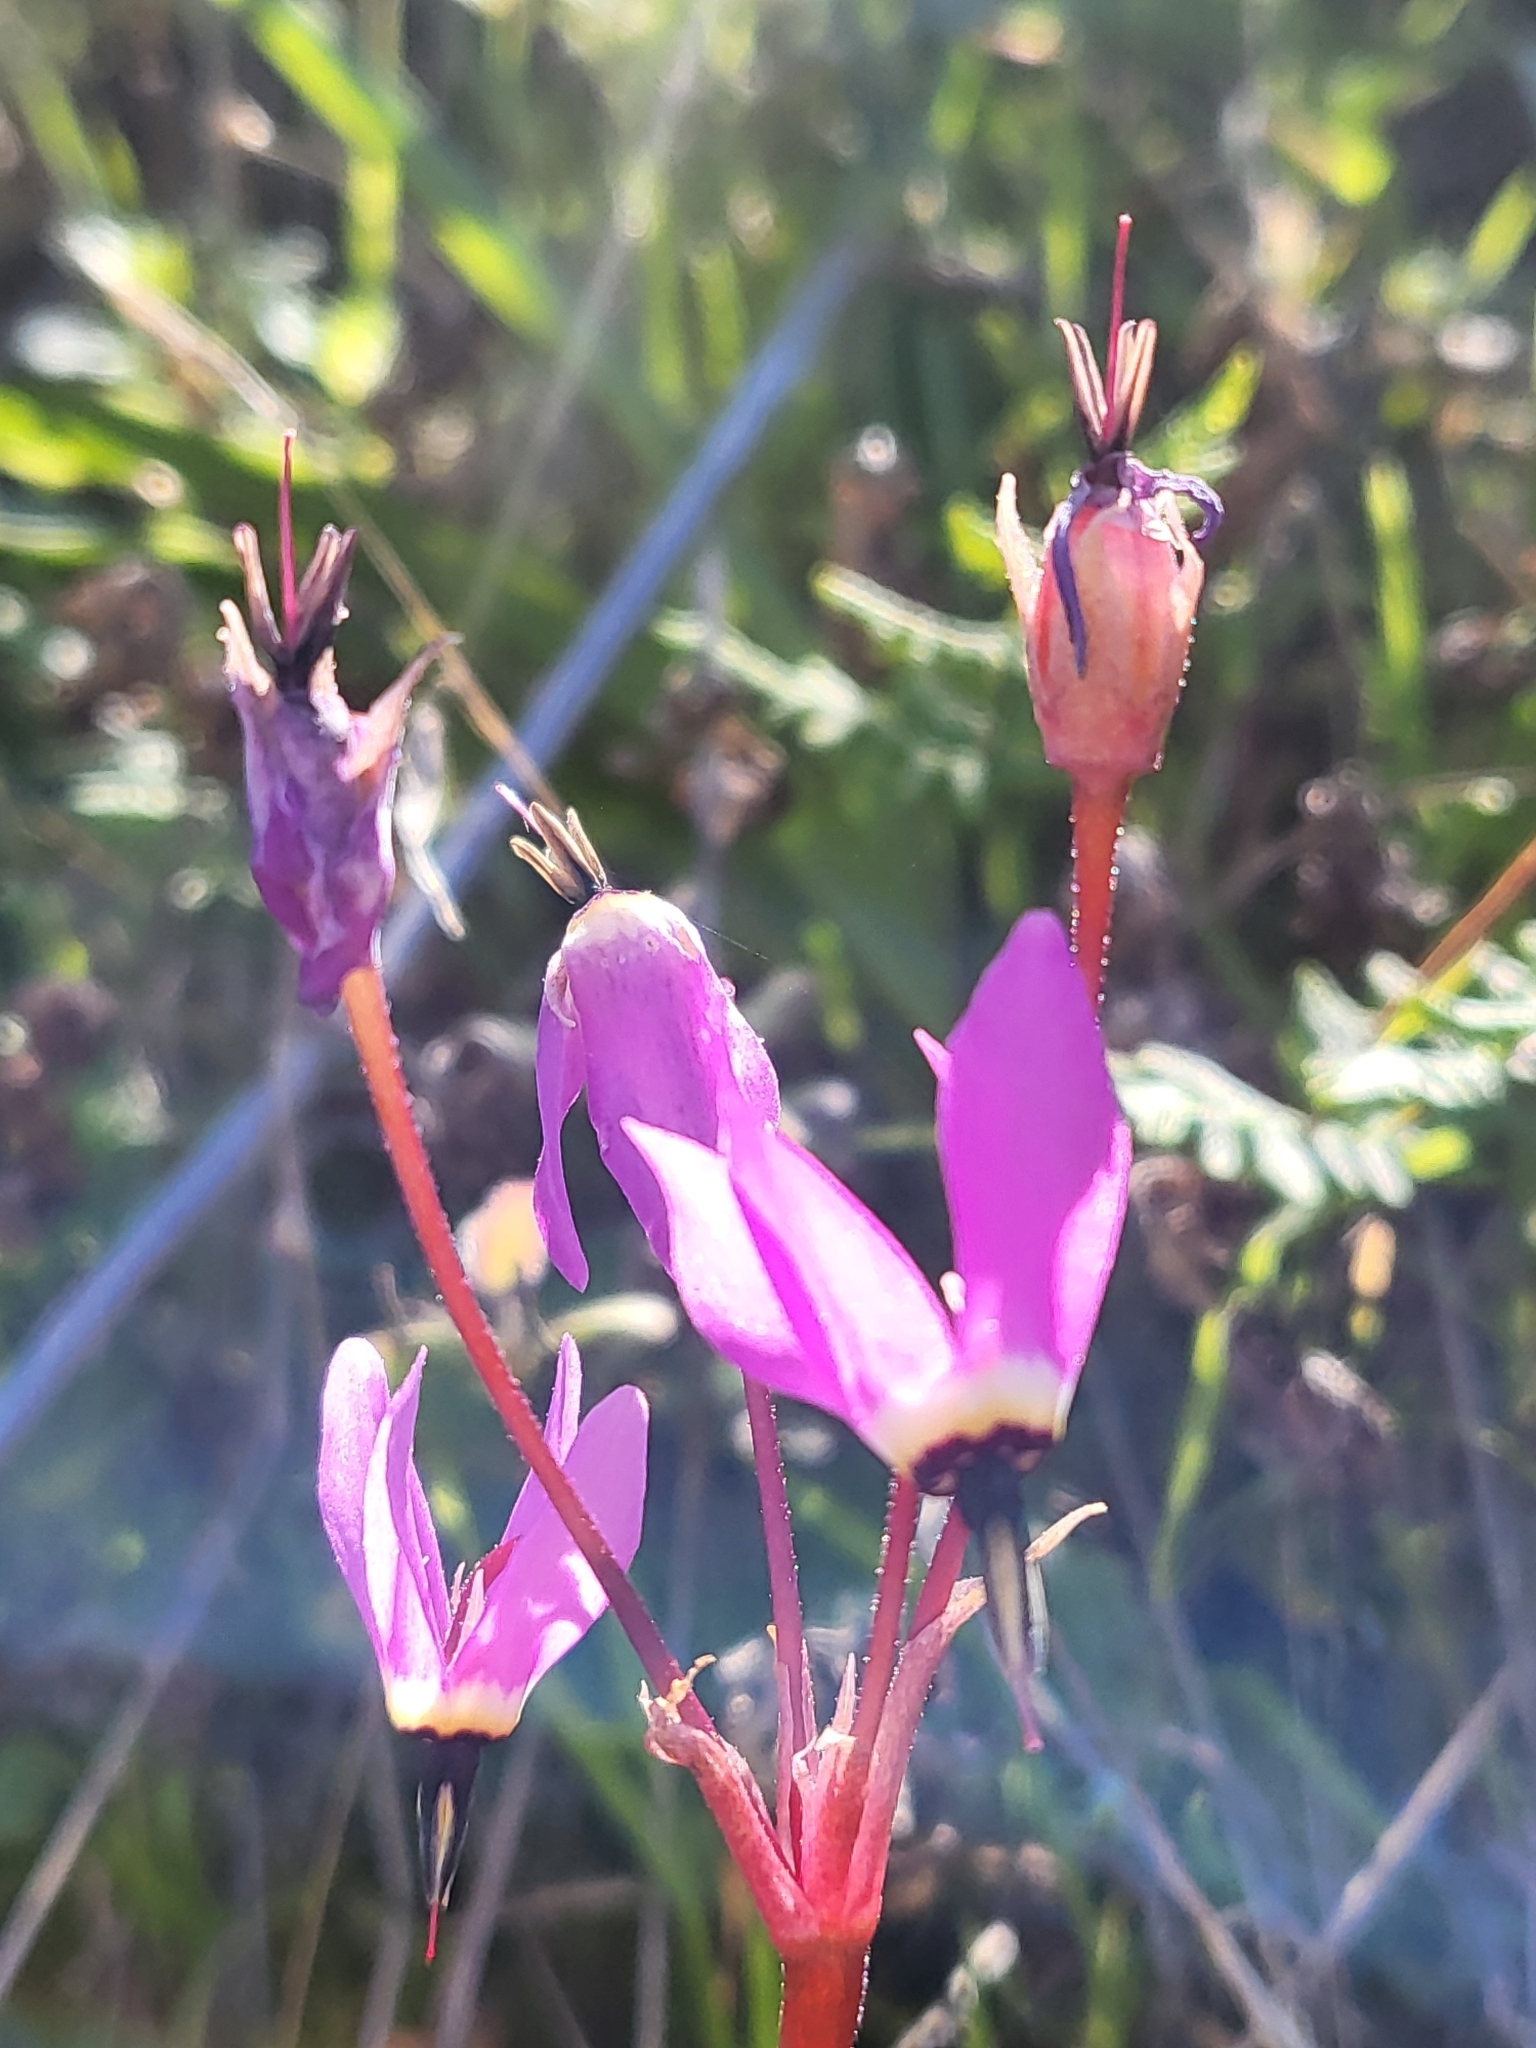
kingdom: Plantae
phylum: Tracheophyta
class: Magnoliopsida
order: Ericales
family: Primulaceae
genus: Dodecatheon
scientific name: Dodecatheon hendersonii
